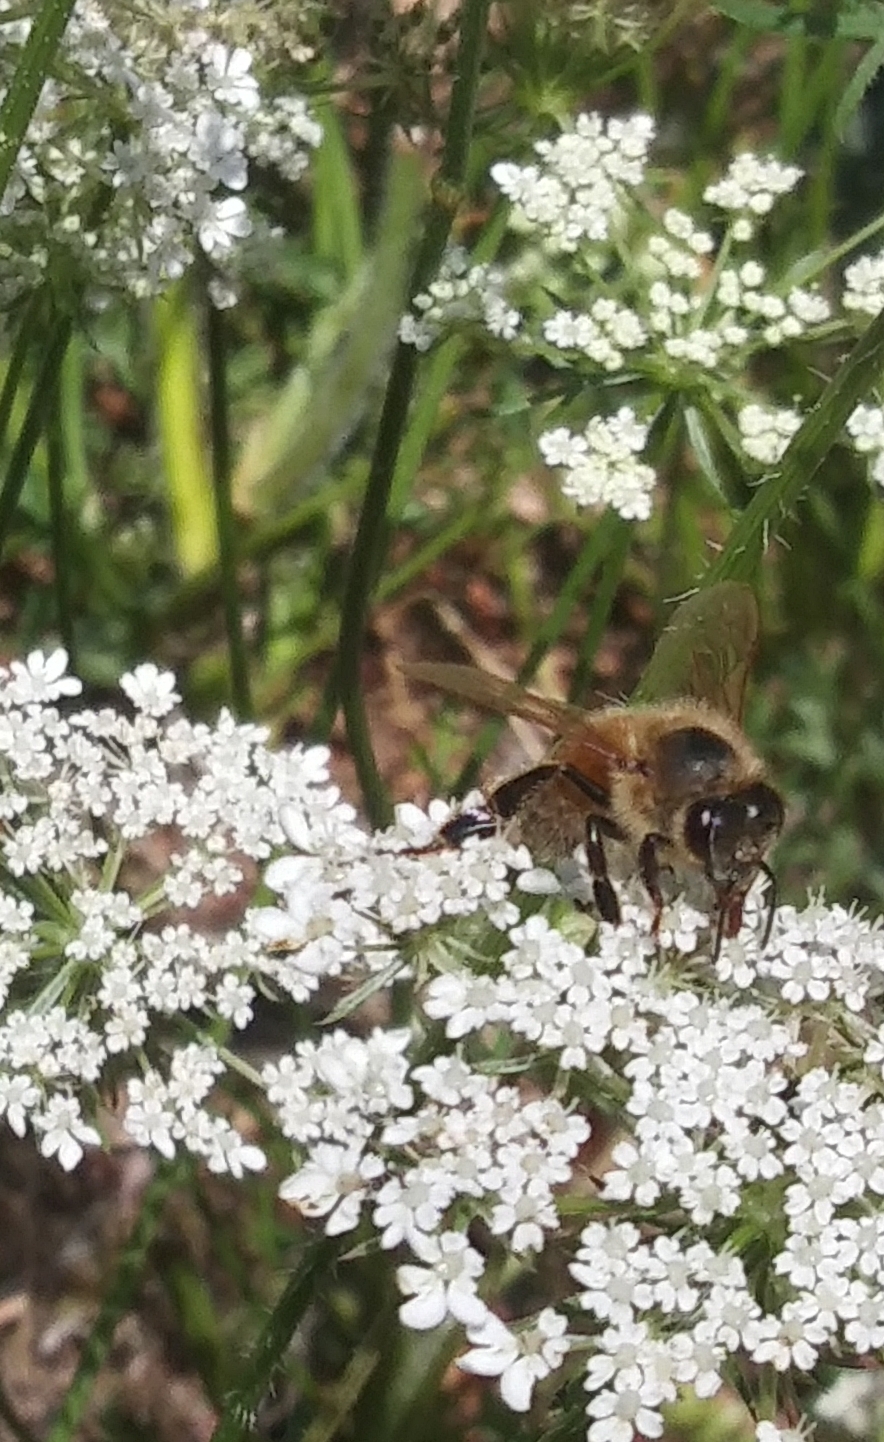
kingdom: Animalia
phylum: Arthropoda
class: Insecta
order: Hymenoptera
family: Apidae
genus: Apis
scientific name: Apis mellifera
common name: Honey bee
